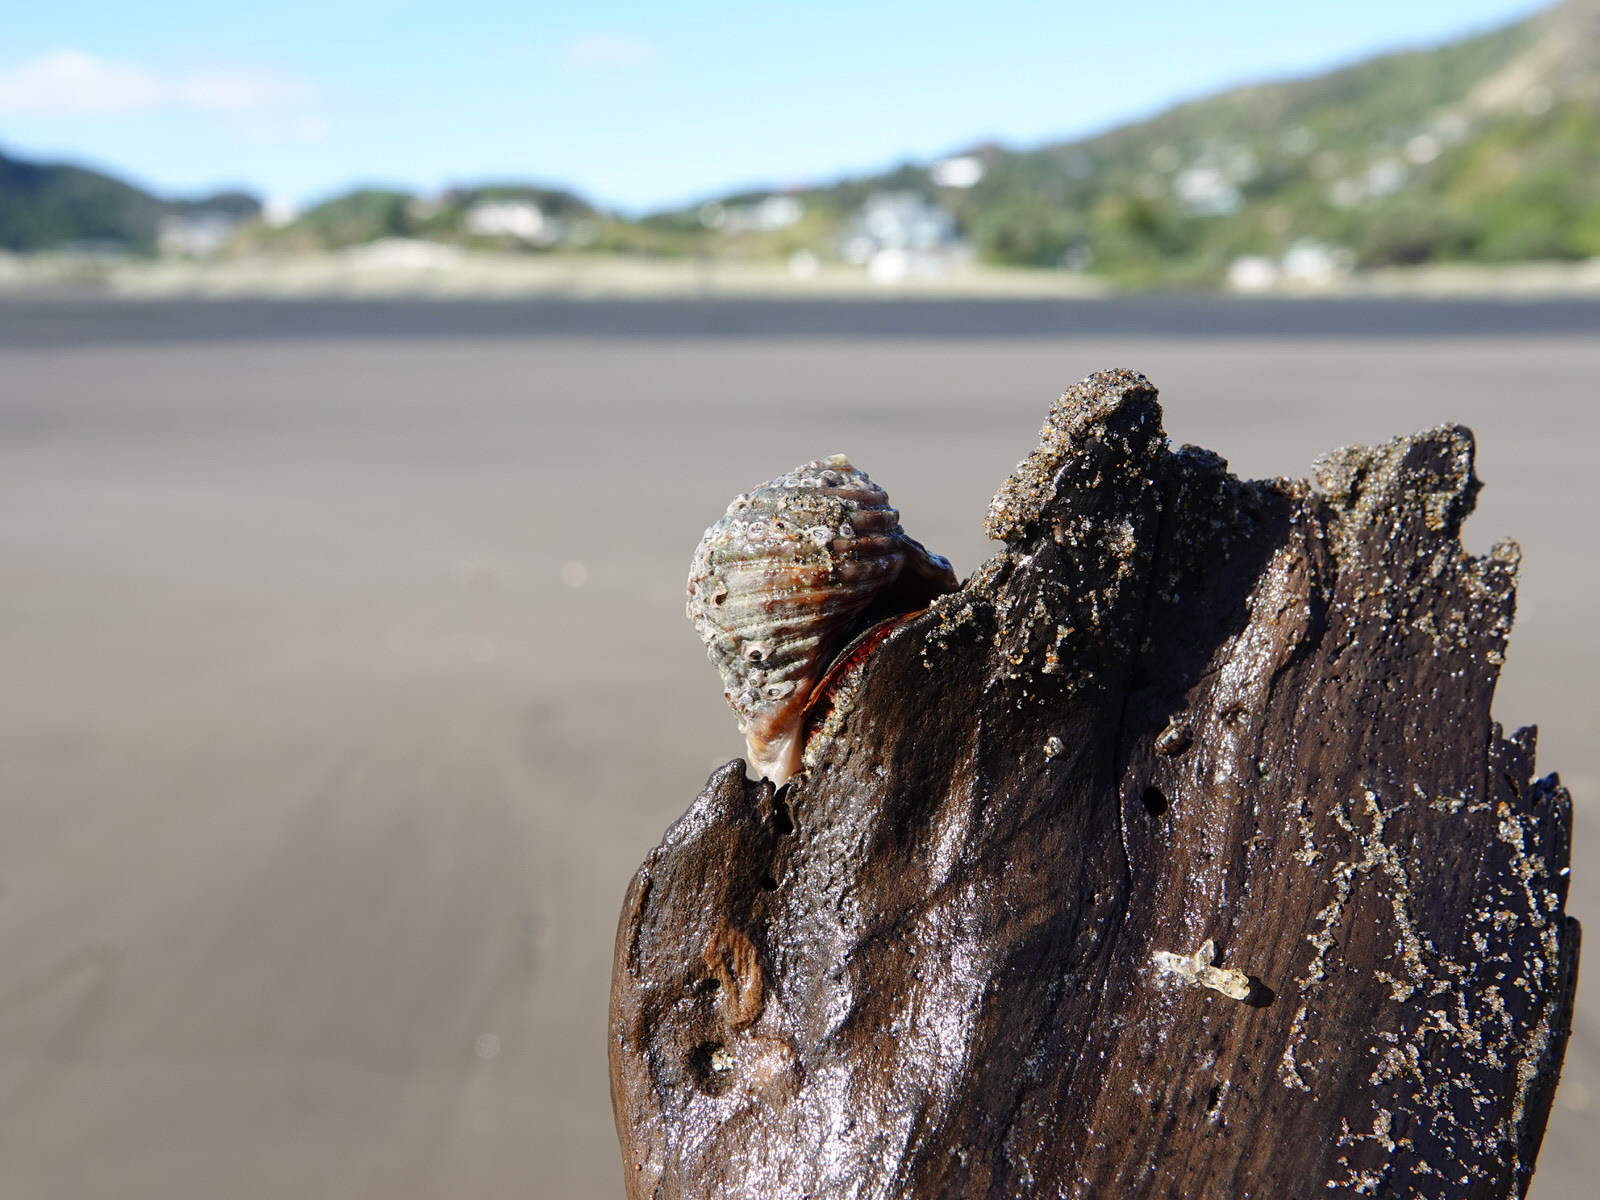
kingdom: Animalia
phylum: Mollusca
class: Gastropoda
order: Neogastropoda
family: Muricidae
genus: Dicathais
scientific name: Dicathais orbita
